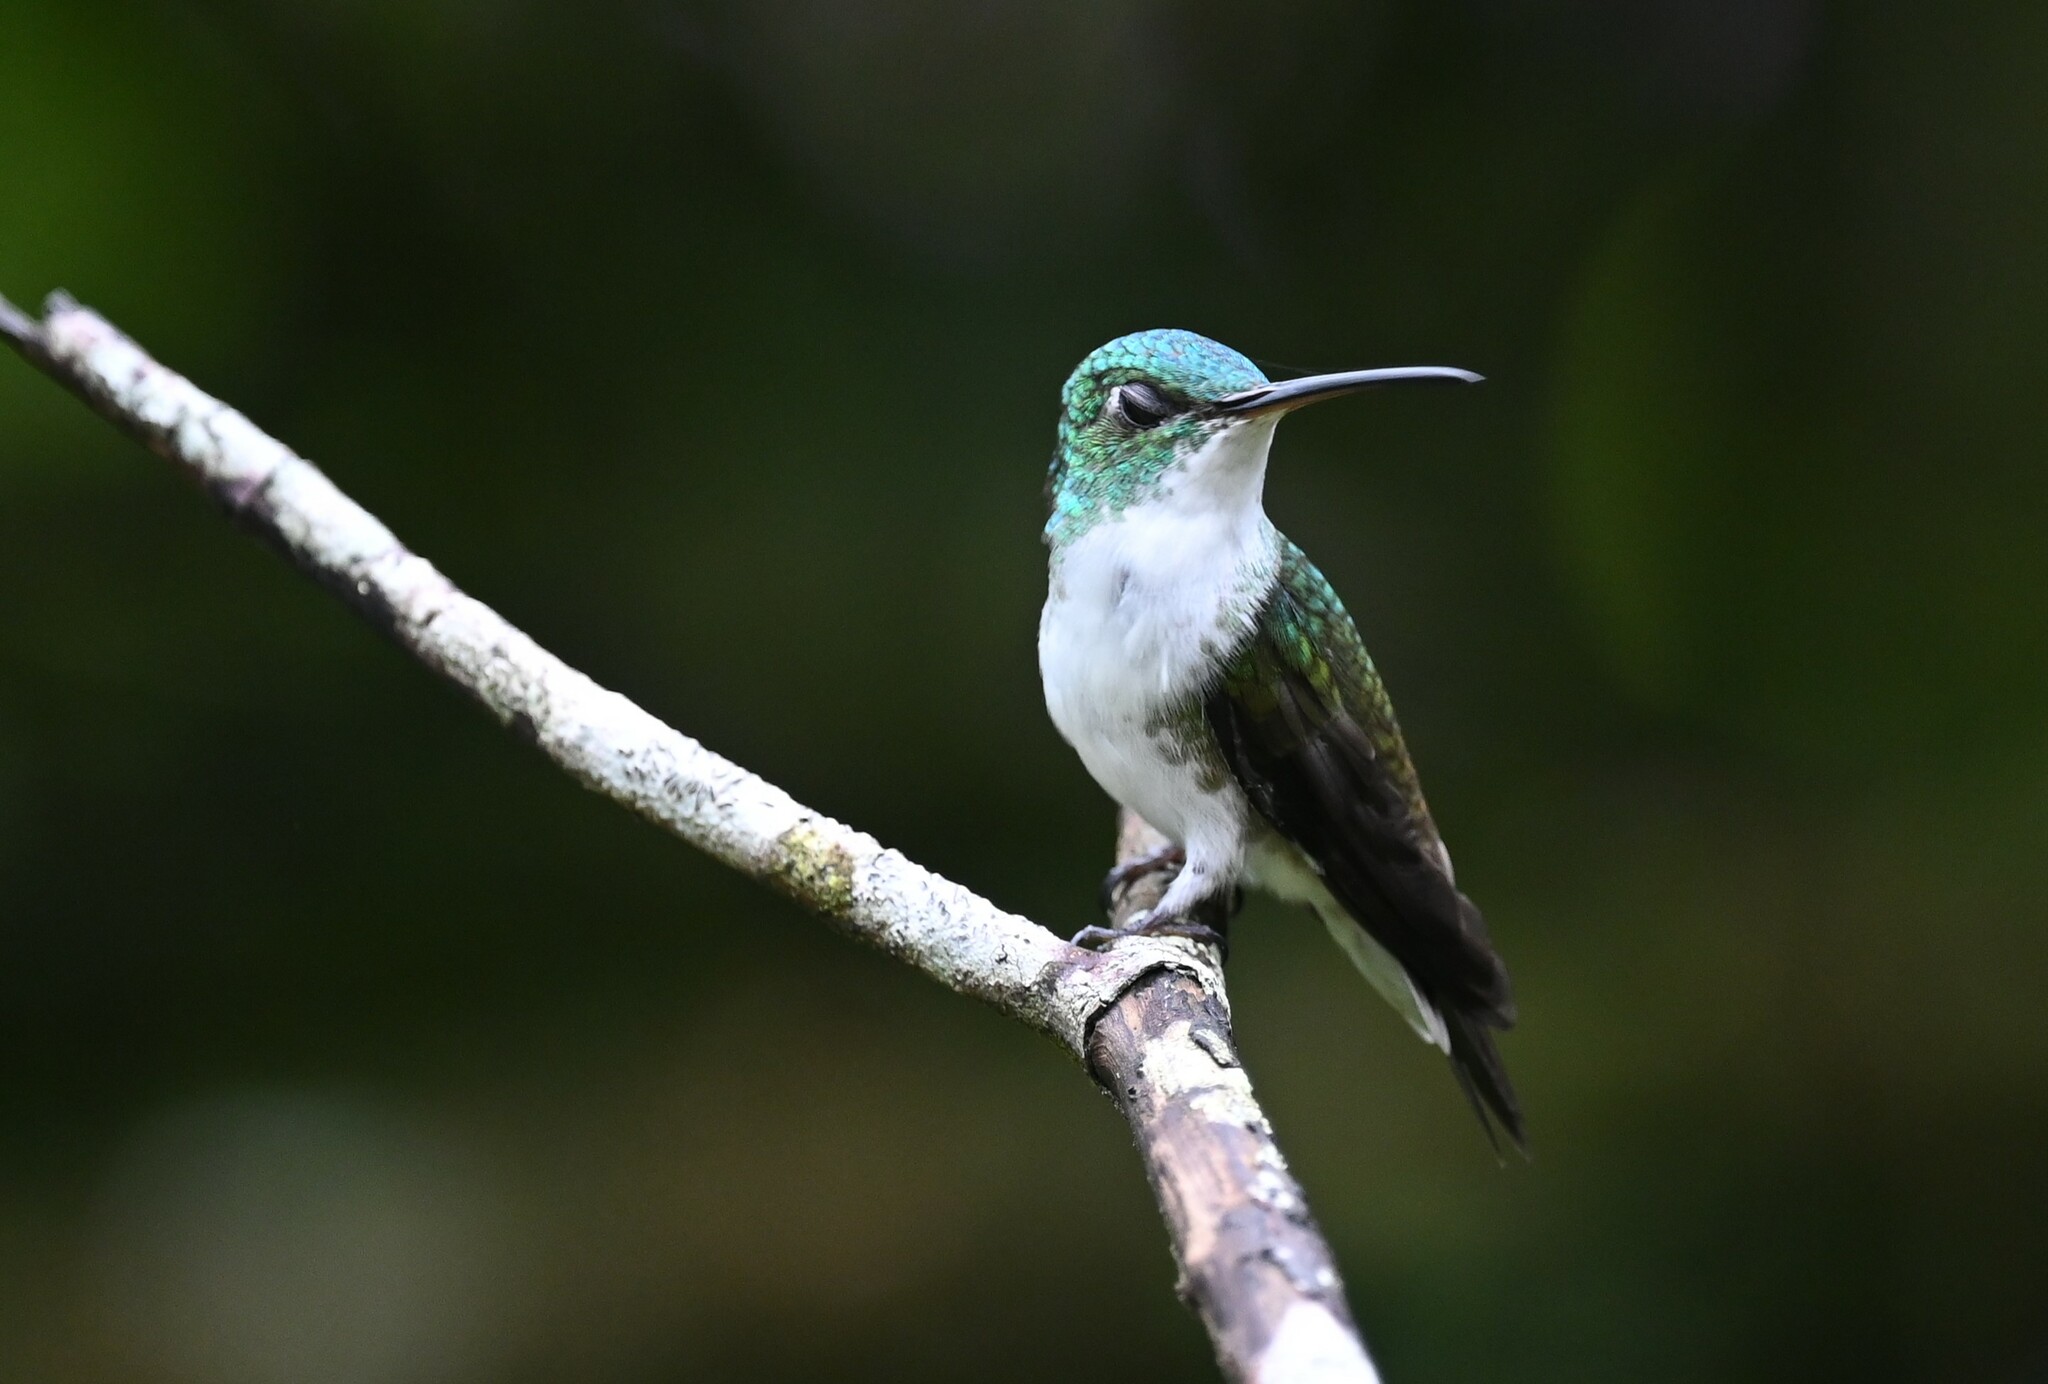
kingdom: Animalia
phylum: Chordata
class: Aves
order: Apodiformes
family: Trochilidae
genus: Uranomitra
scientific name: Uranomitra franciae
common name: Andean emerald
